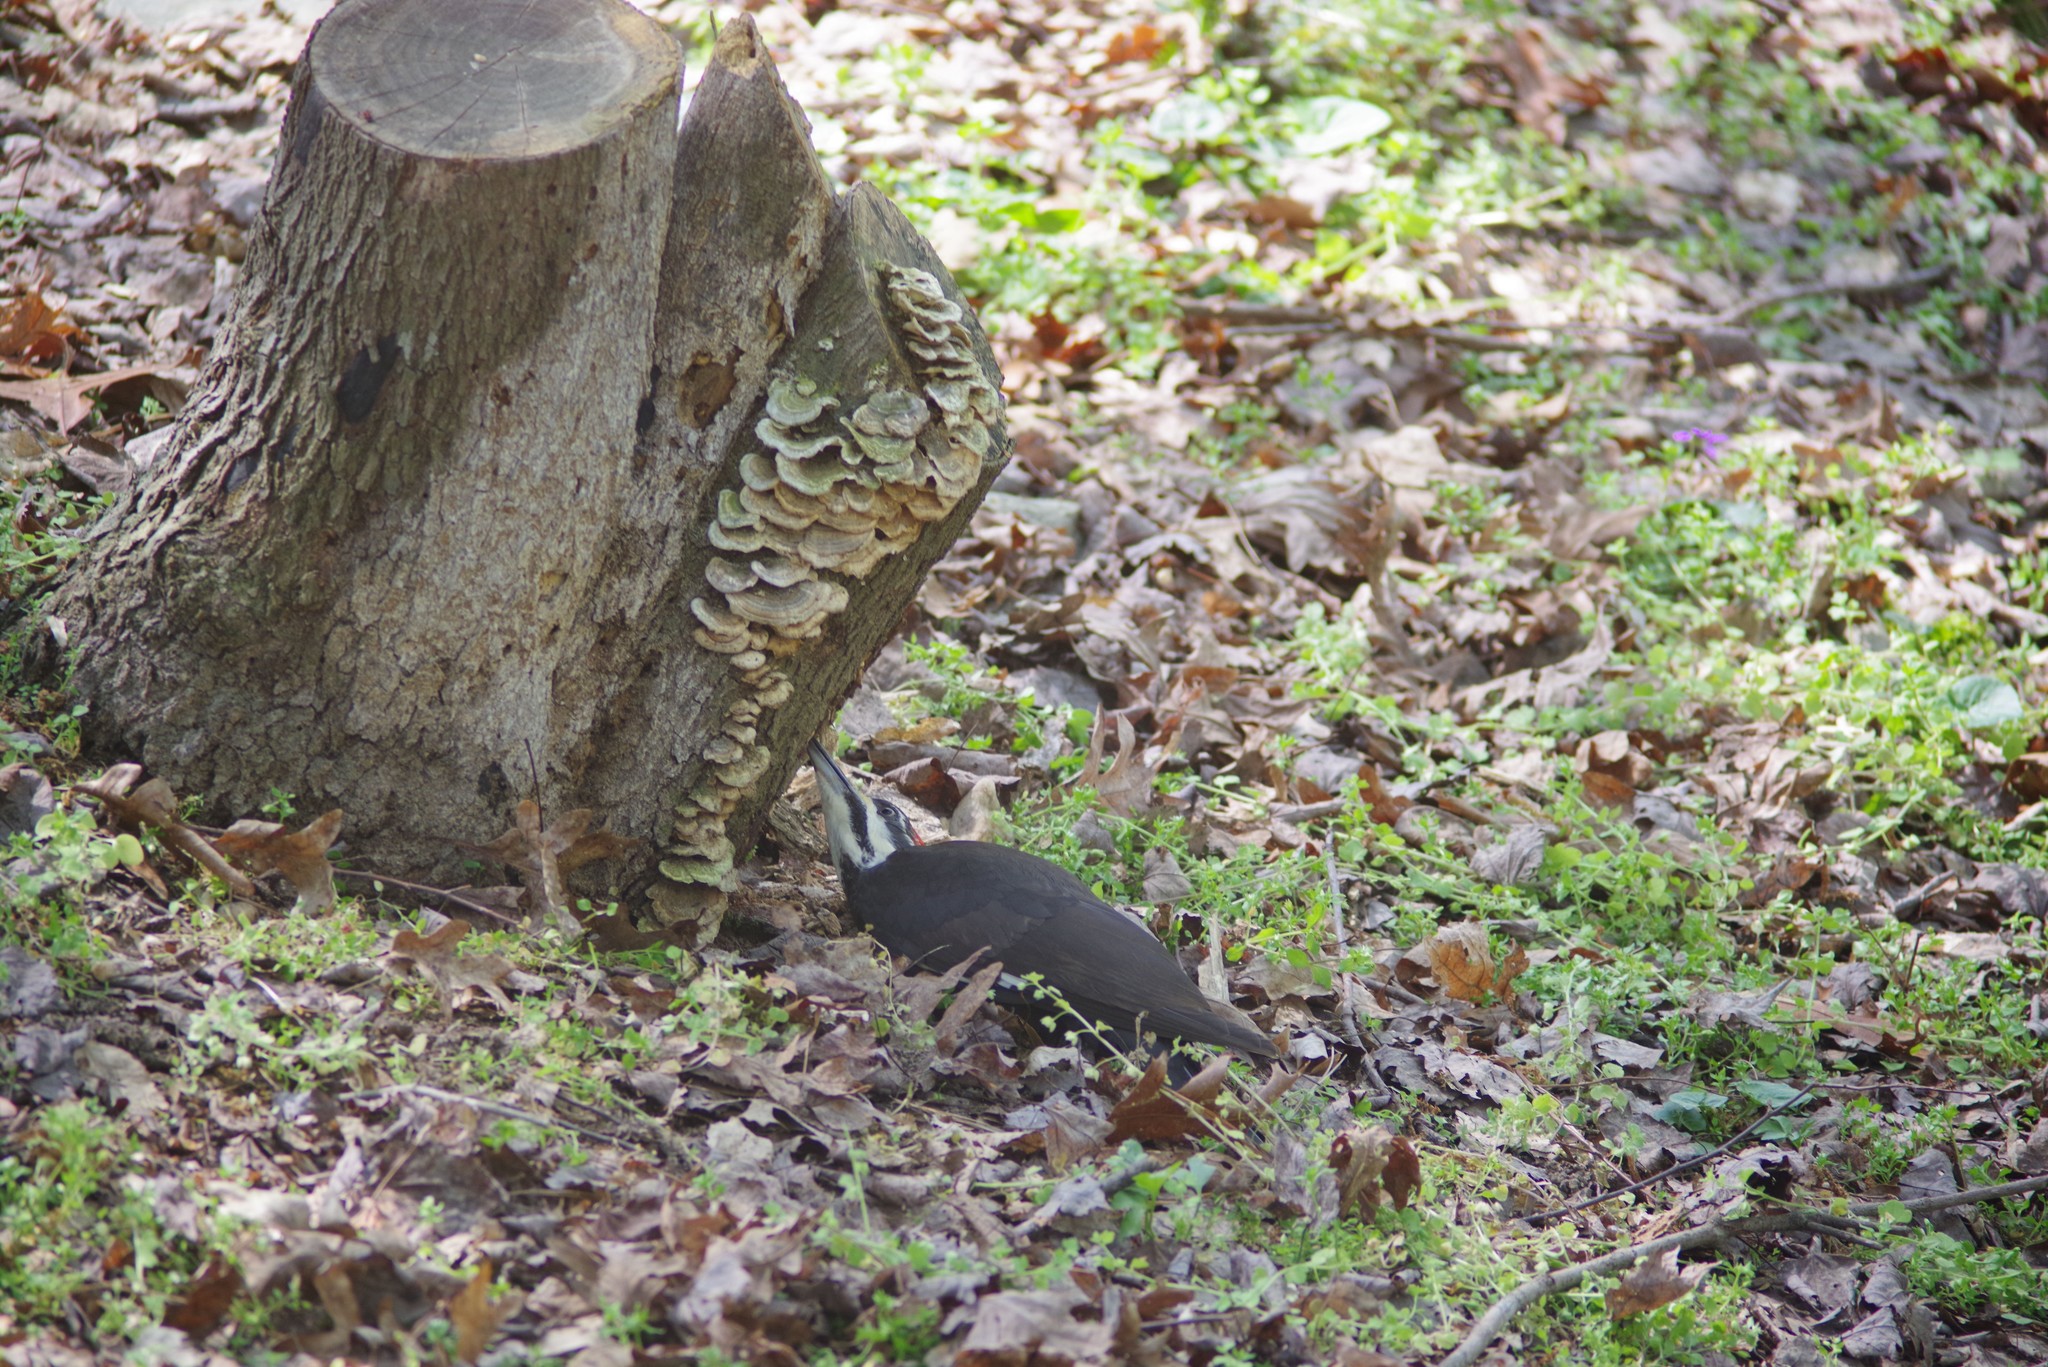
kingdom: Animalia
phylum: Chordata
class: Aves
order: Piciformes
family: Picidae
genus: Dryocopus
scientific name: Dryocopus pileatus
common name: Pileated woodpecker
